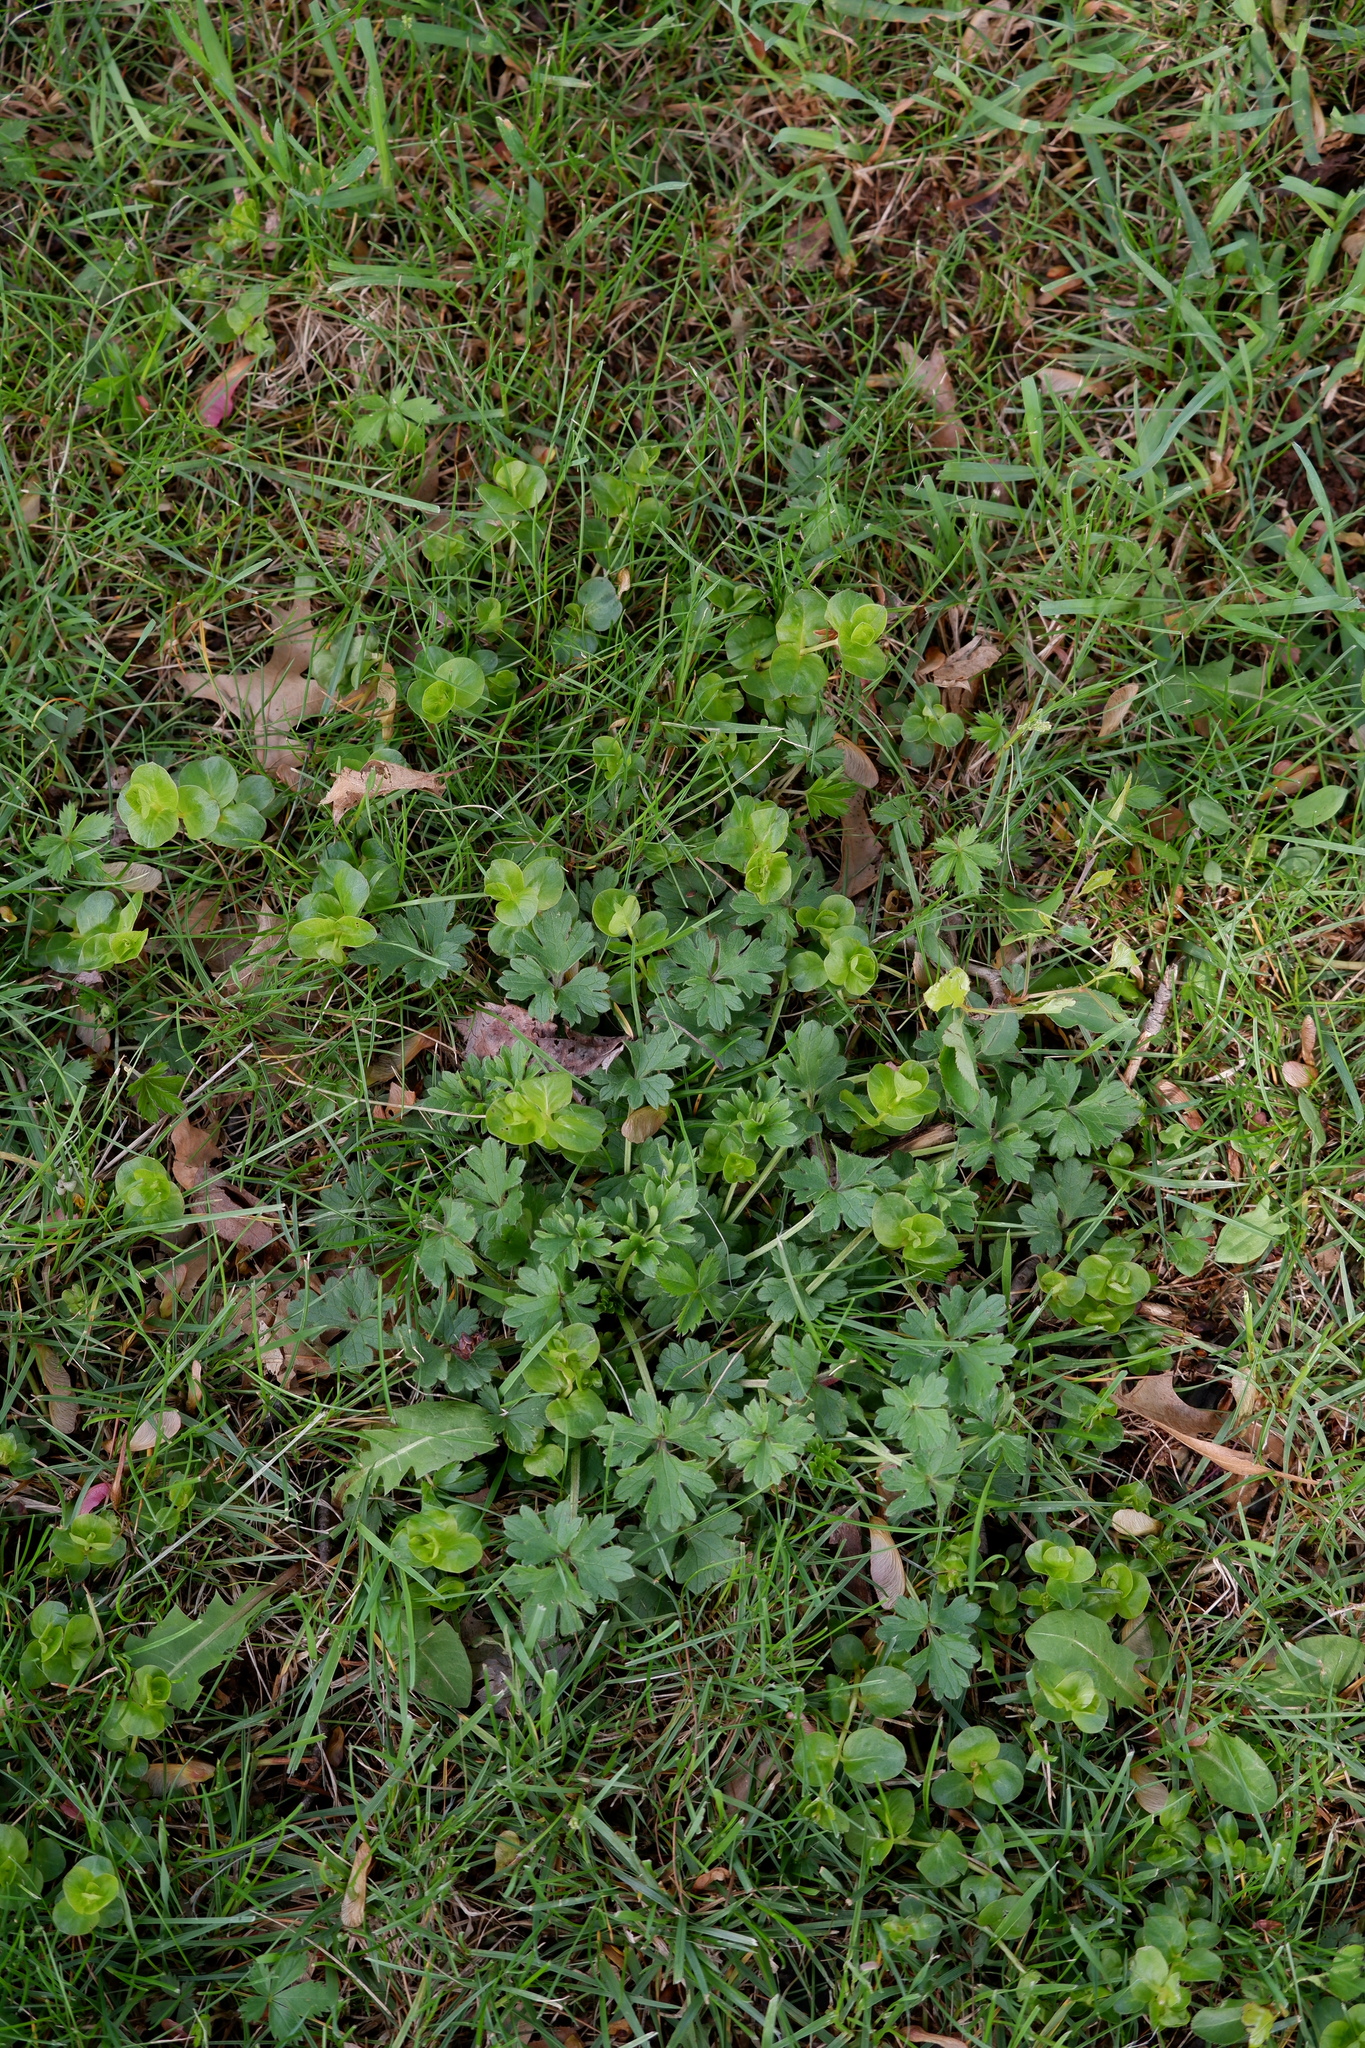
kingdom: Plantae
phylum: Tracheophyta
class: Magnoliopsida
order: Ericales
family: Primulaceae
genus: Lysimachia
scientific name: Lysimachia nummularia
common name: Moneywort
